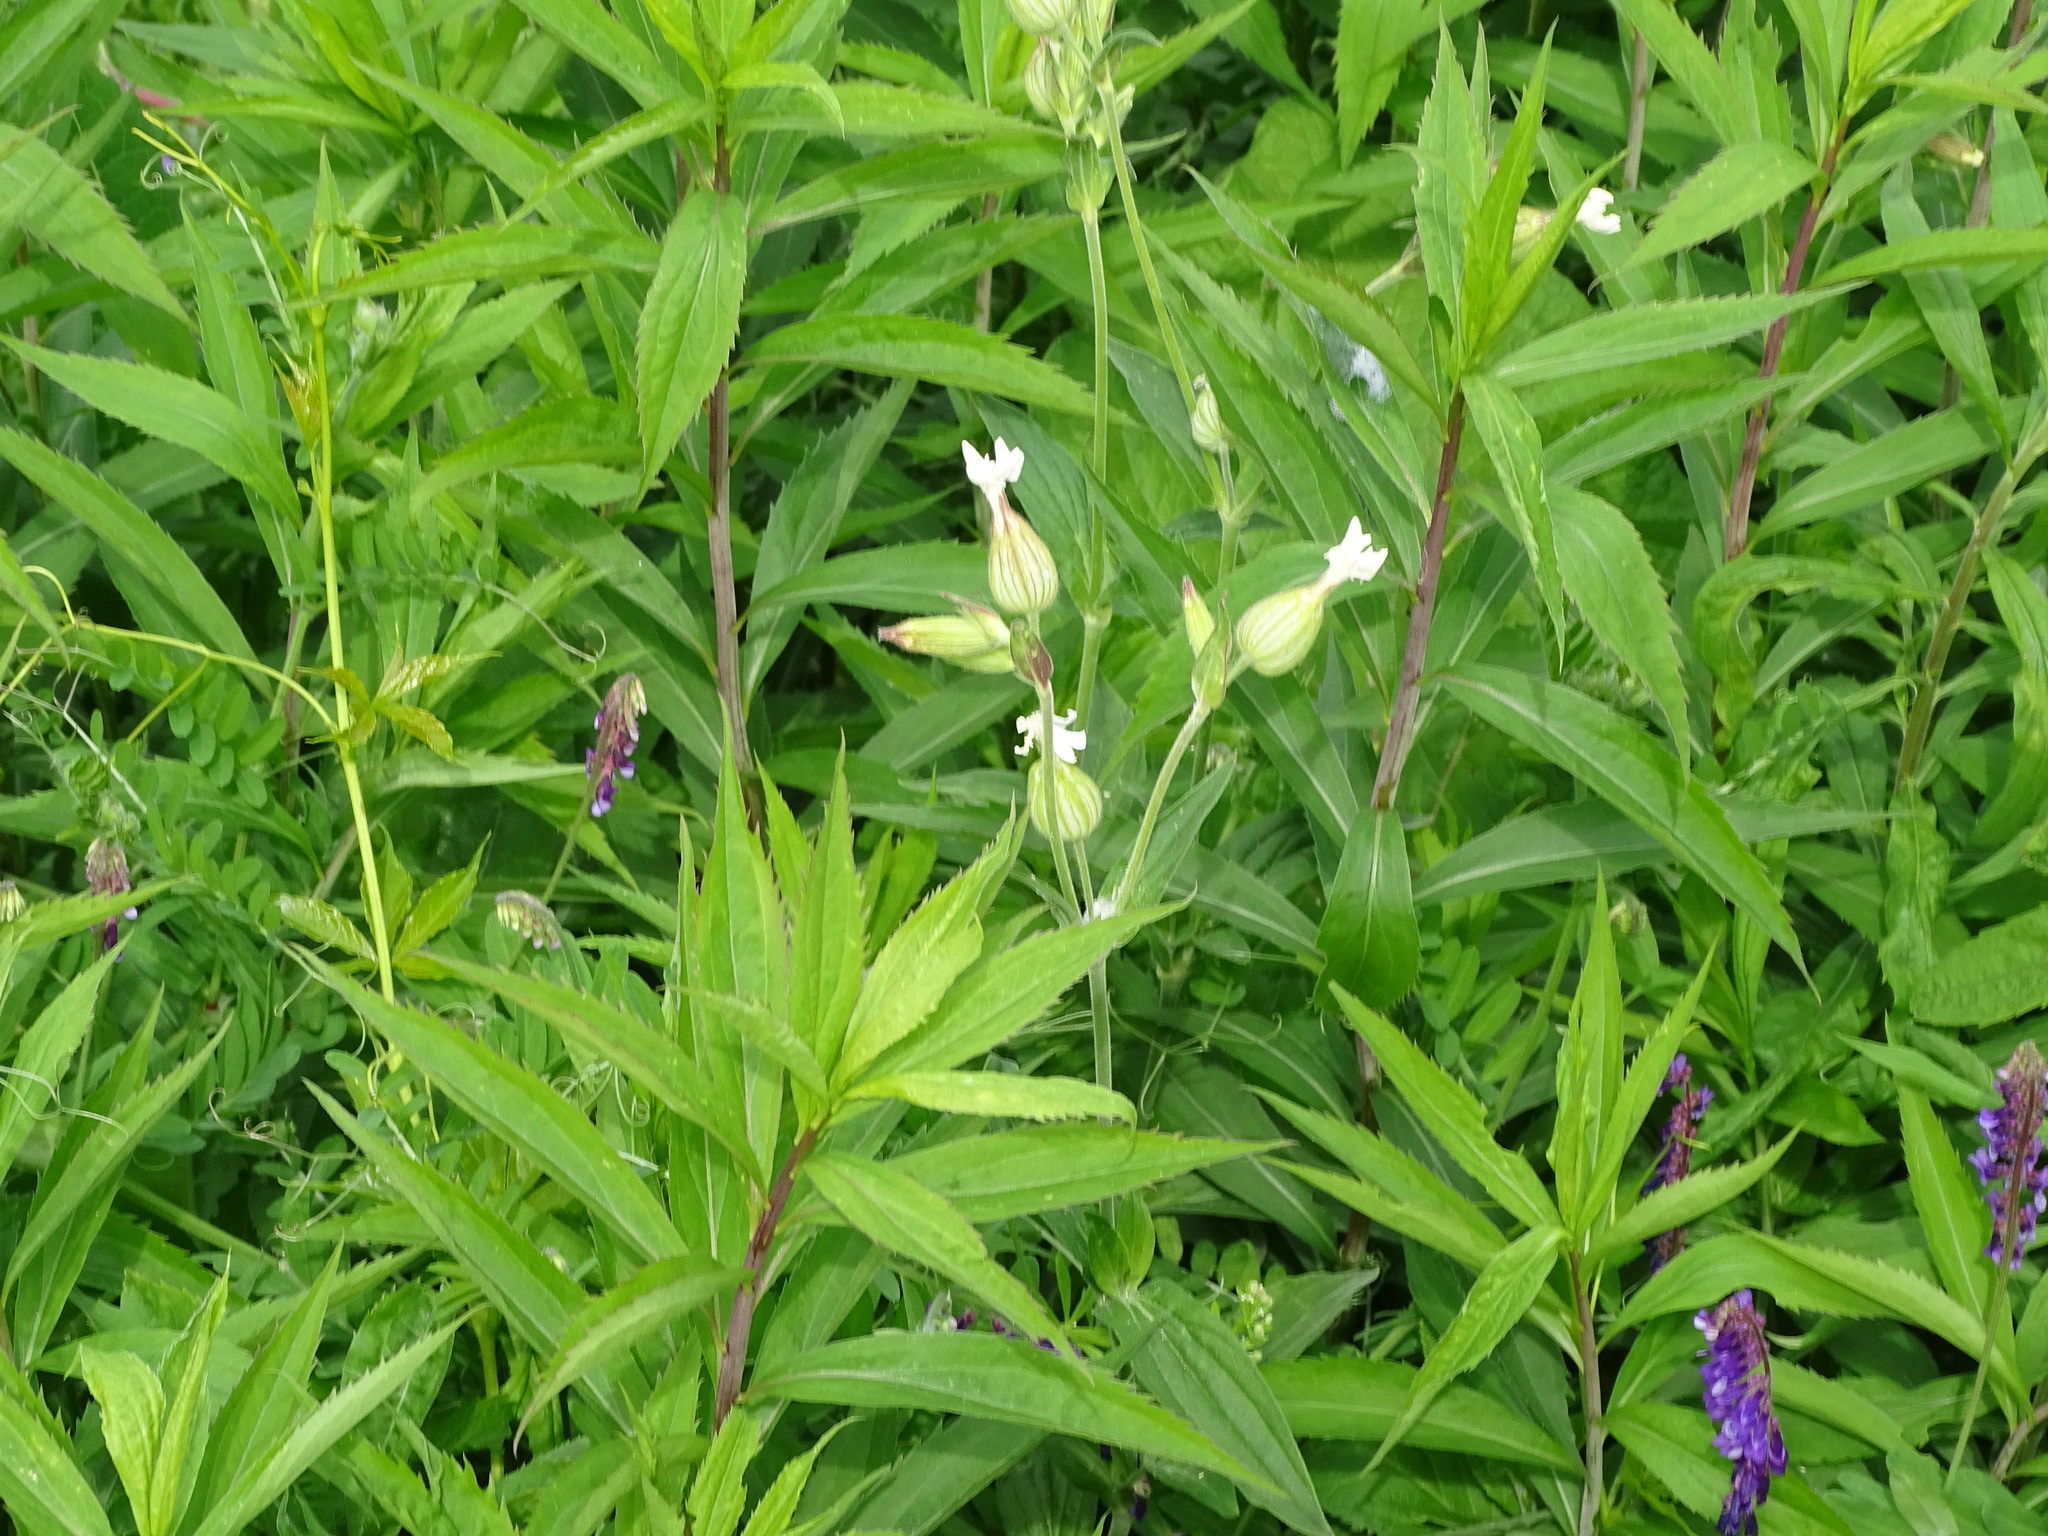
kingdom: Plantae
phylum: Tracheophyta
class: Magnoliopsida
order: Caryophyllales
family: Caryophyllaceae
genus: Silene
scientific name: Silene latifolia
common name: White campion
